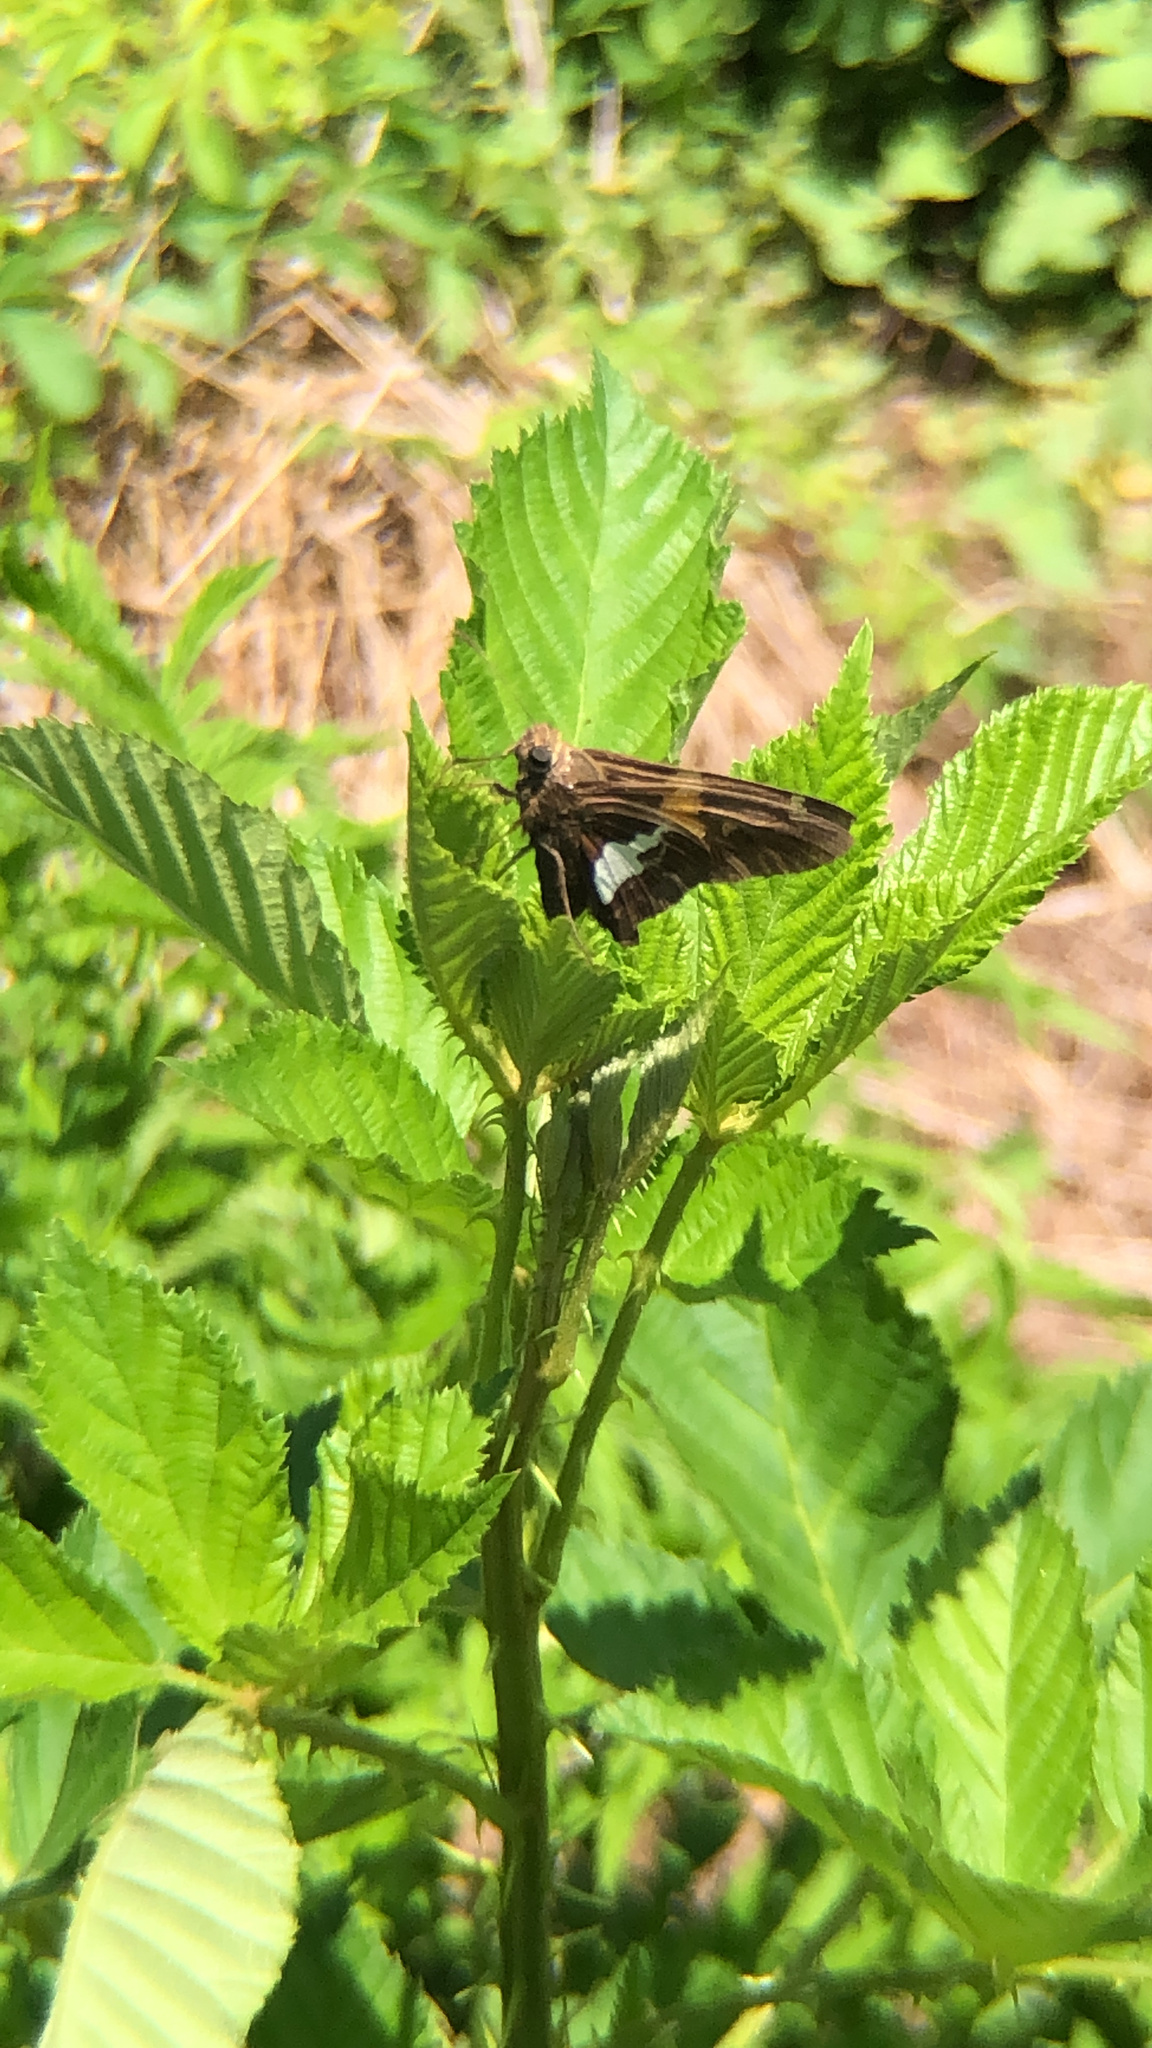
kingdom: Animalia
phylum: Arthropoda
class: Insecta
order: Lepidoptera
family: Hesperiidae
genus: Epargyreus
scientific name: Epargyreus clarus
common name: Silver-spotted skipper
